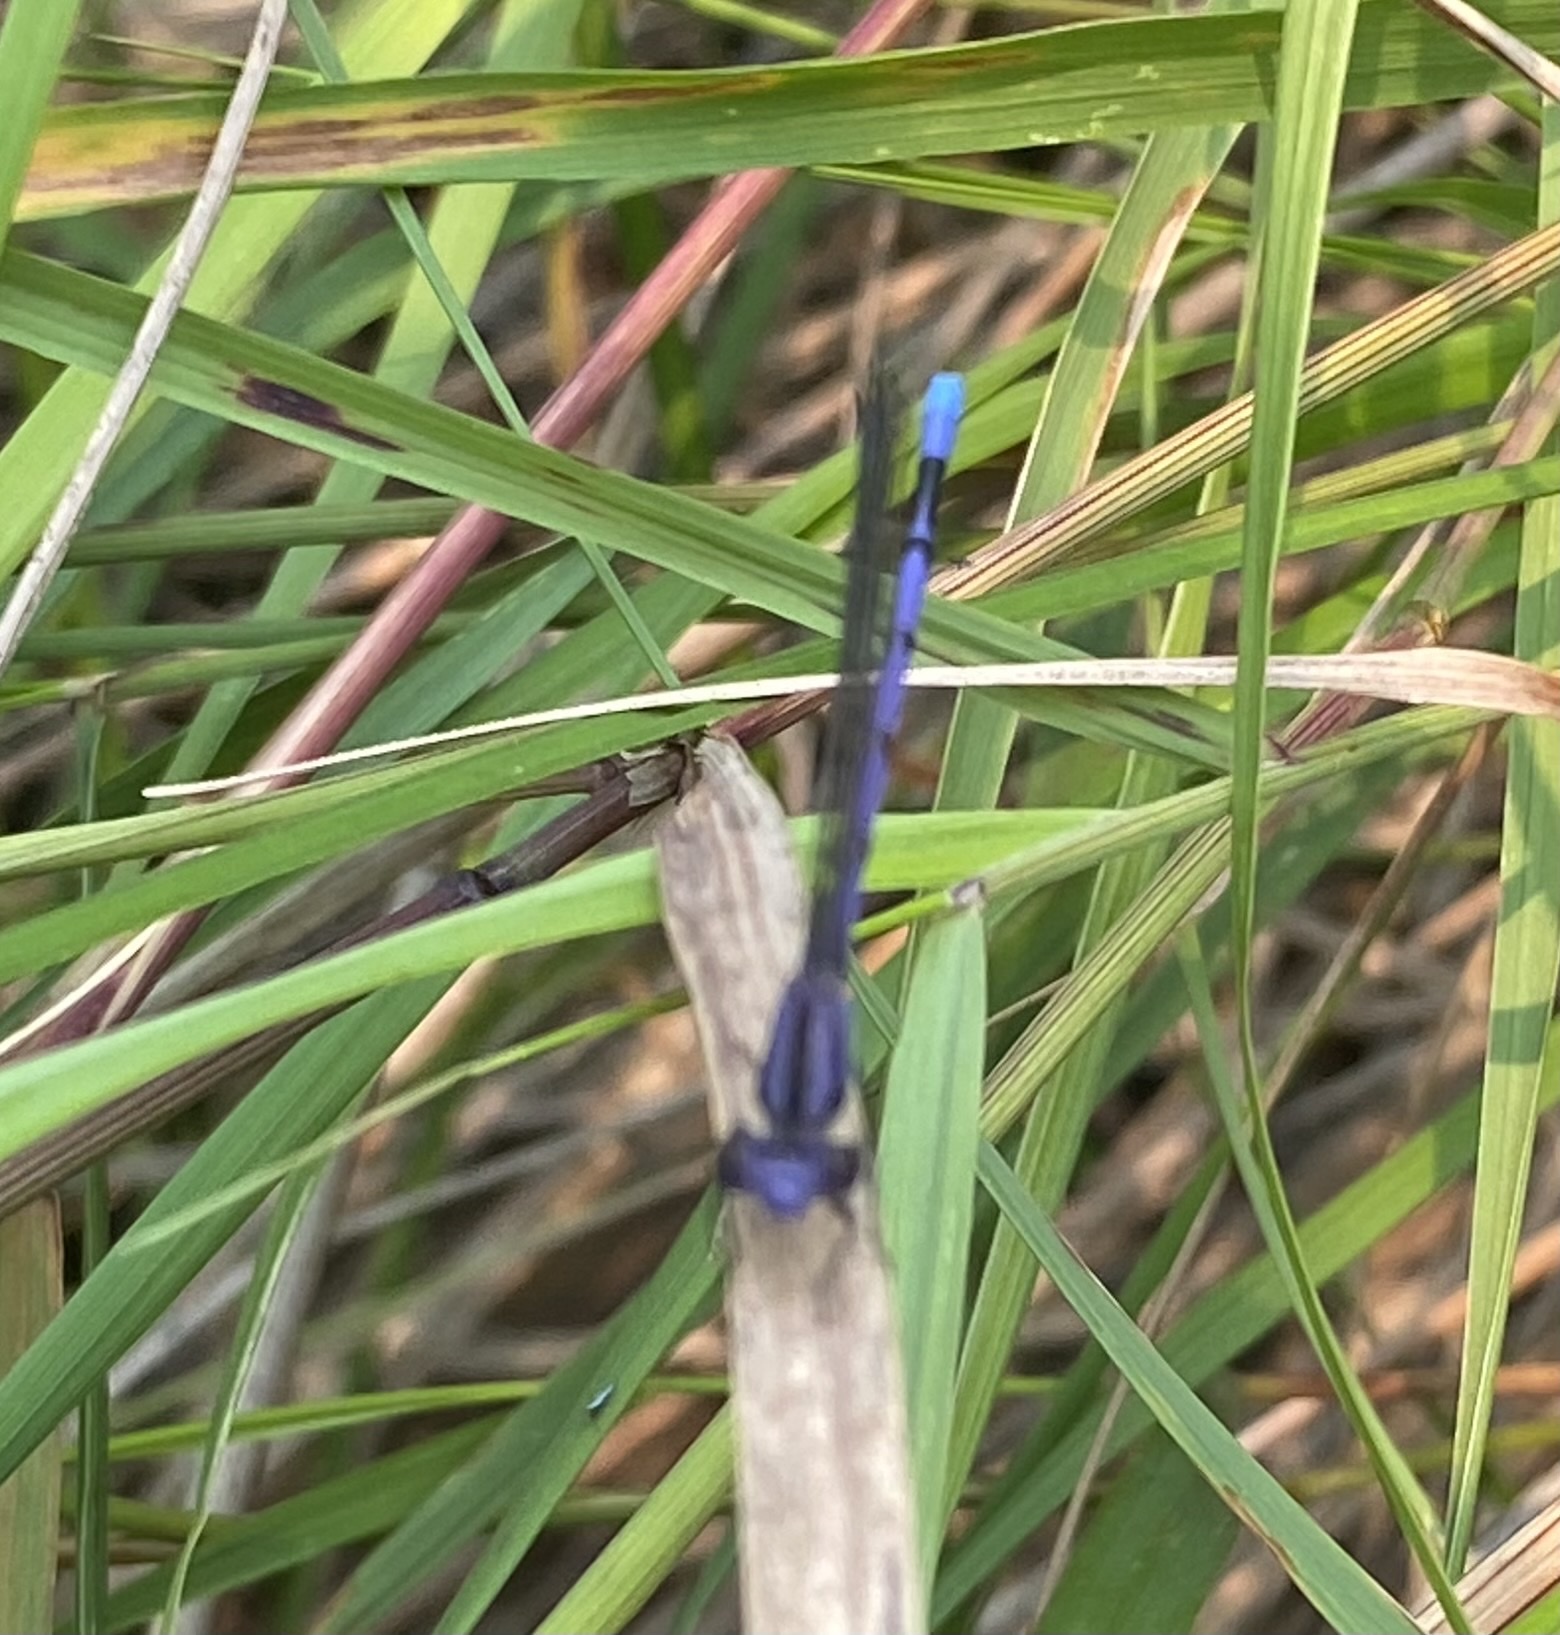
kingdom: Animalia
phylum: Arthropoda
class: Insecta
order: Odonata
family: Coenagrionidae
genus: Argia
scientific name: Argia fumipennis
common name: Variable dancer
